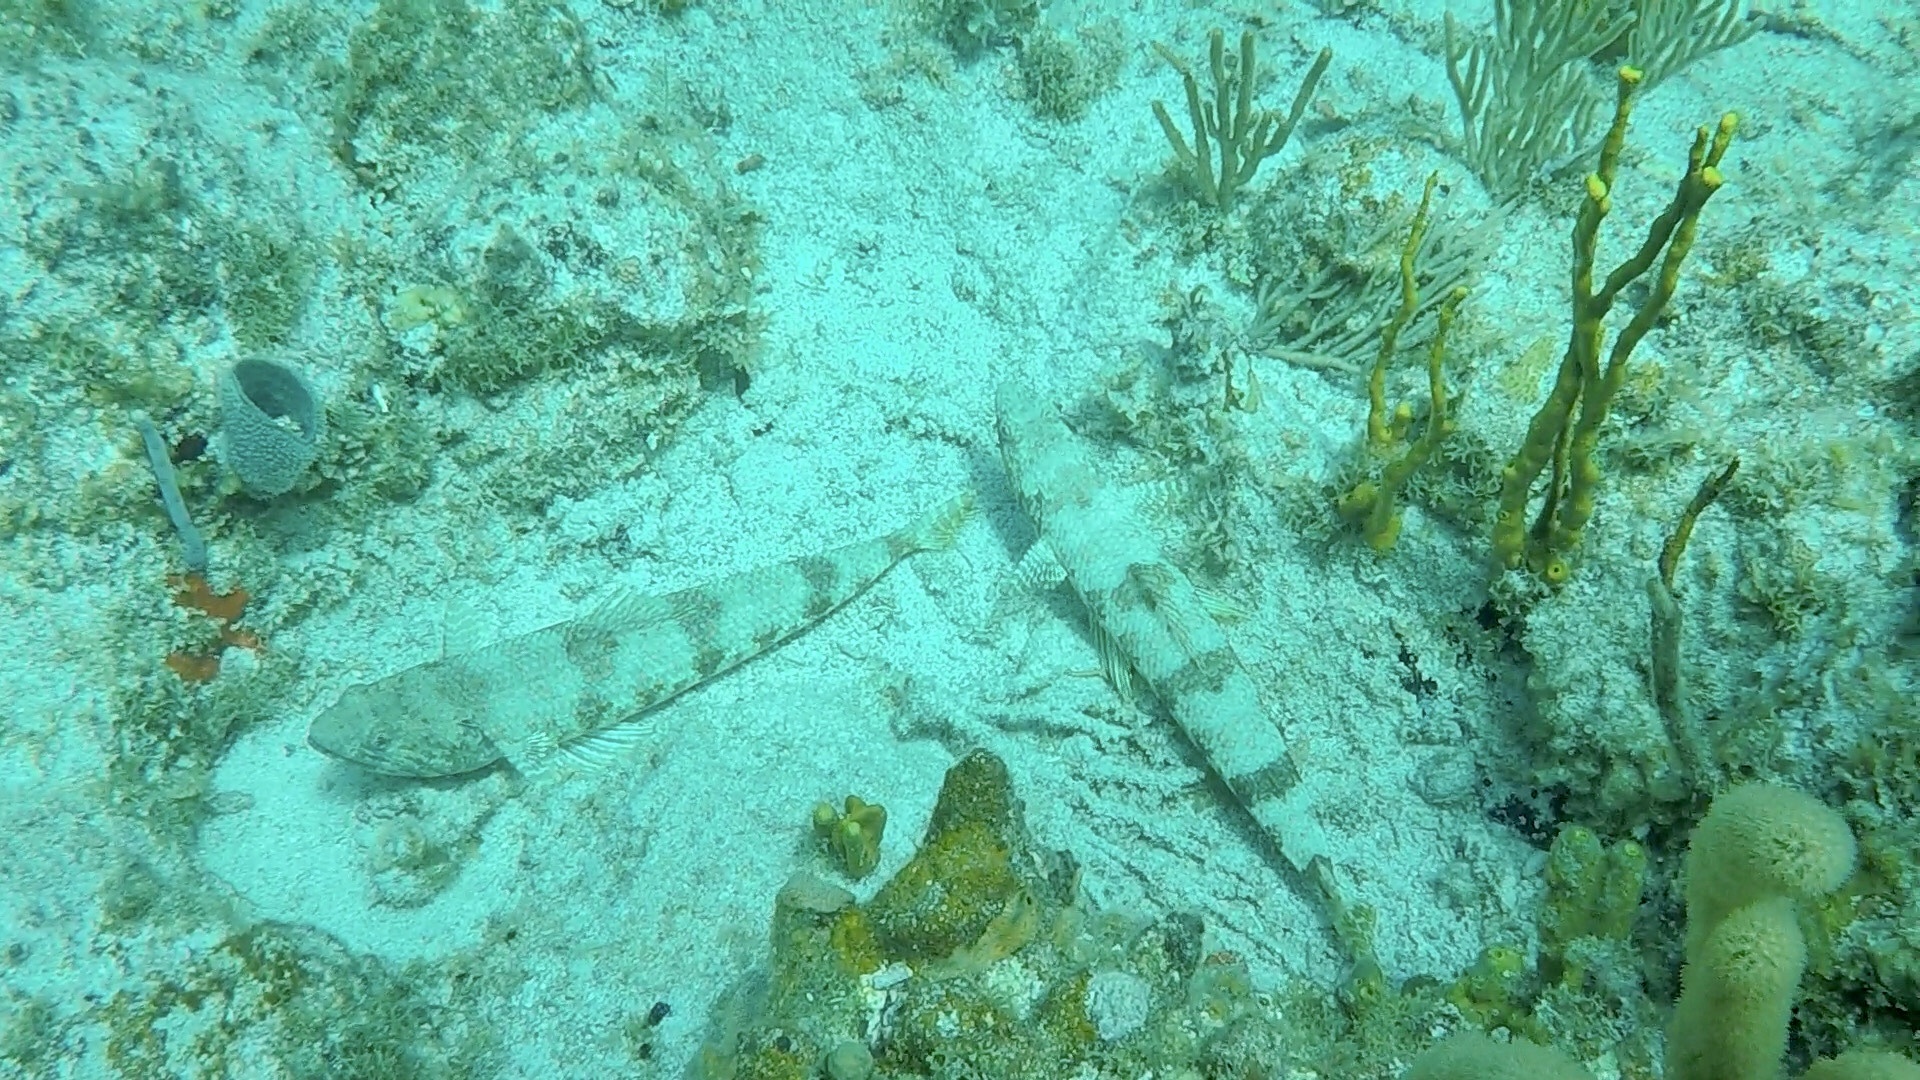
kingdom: Animalia
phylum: Chordata
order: Aulopiformes
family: Synodontidae
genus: Synodus
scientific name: Synodus intermedius
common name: Sand diver
